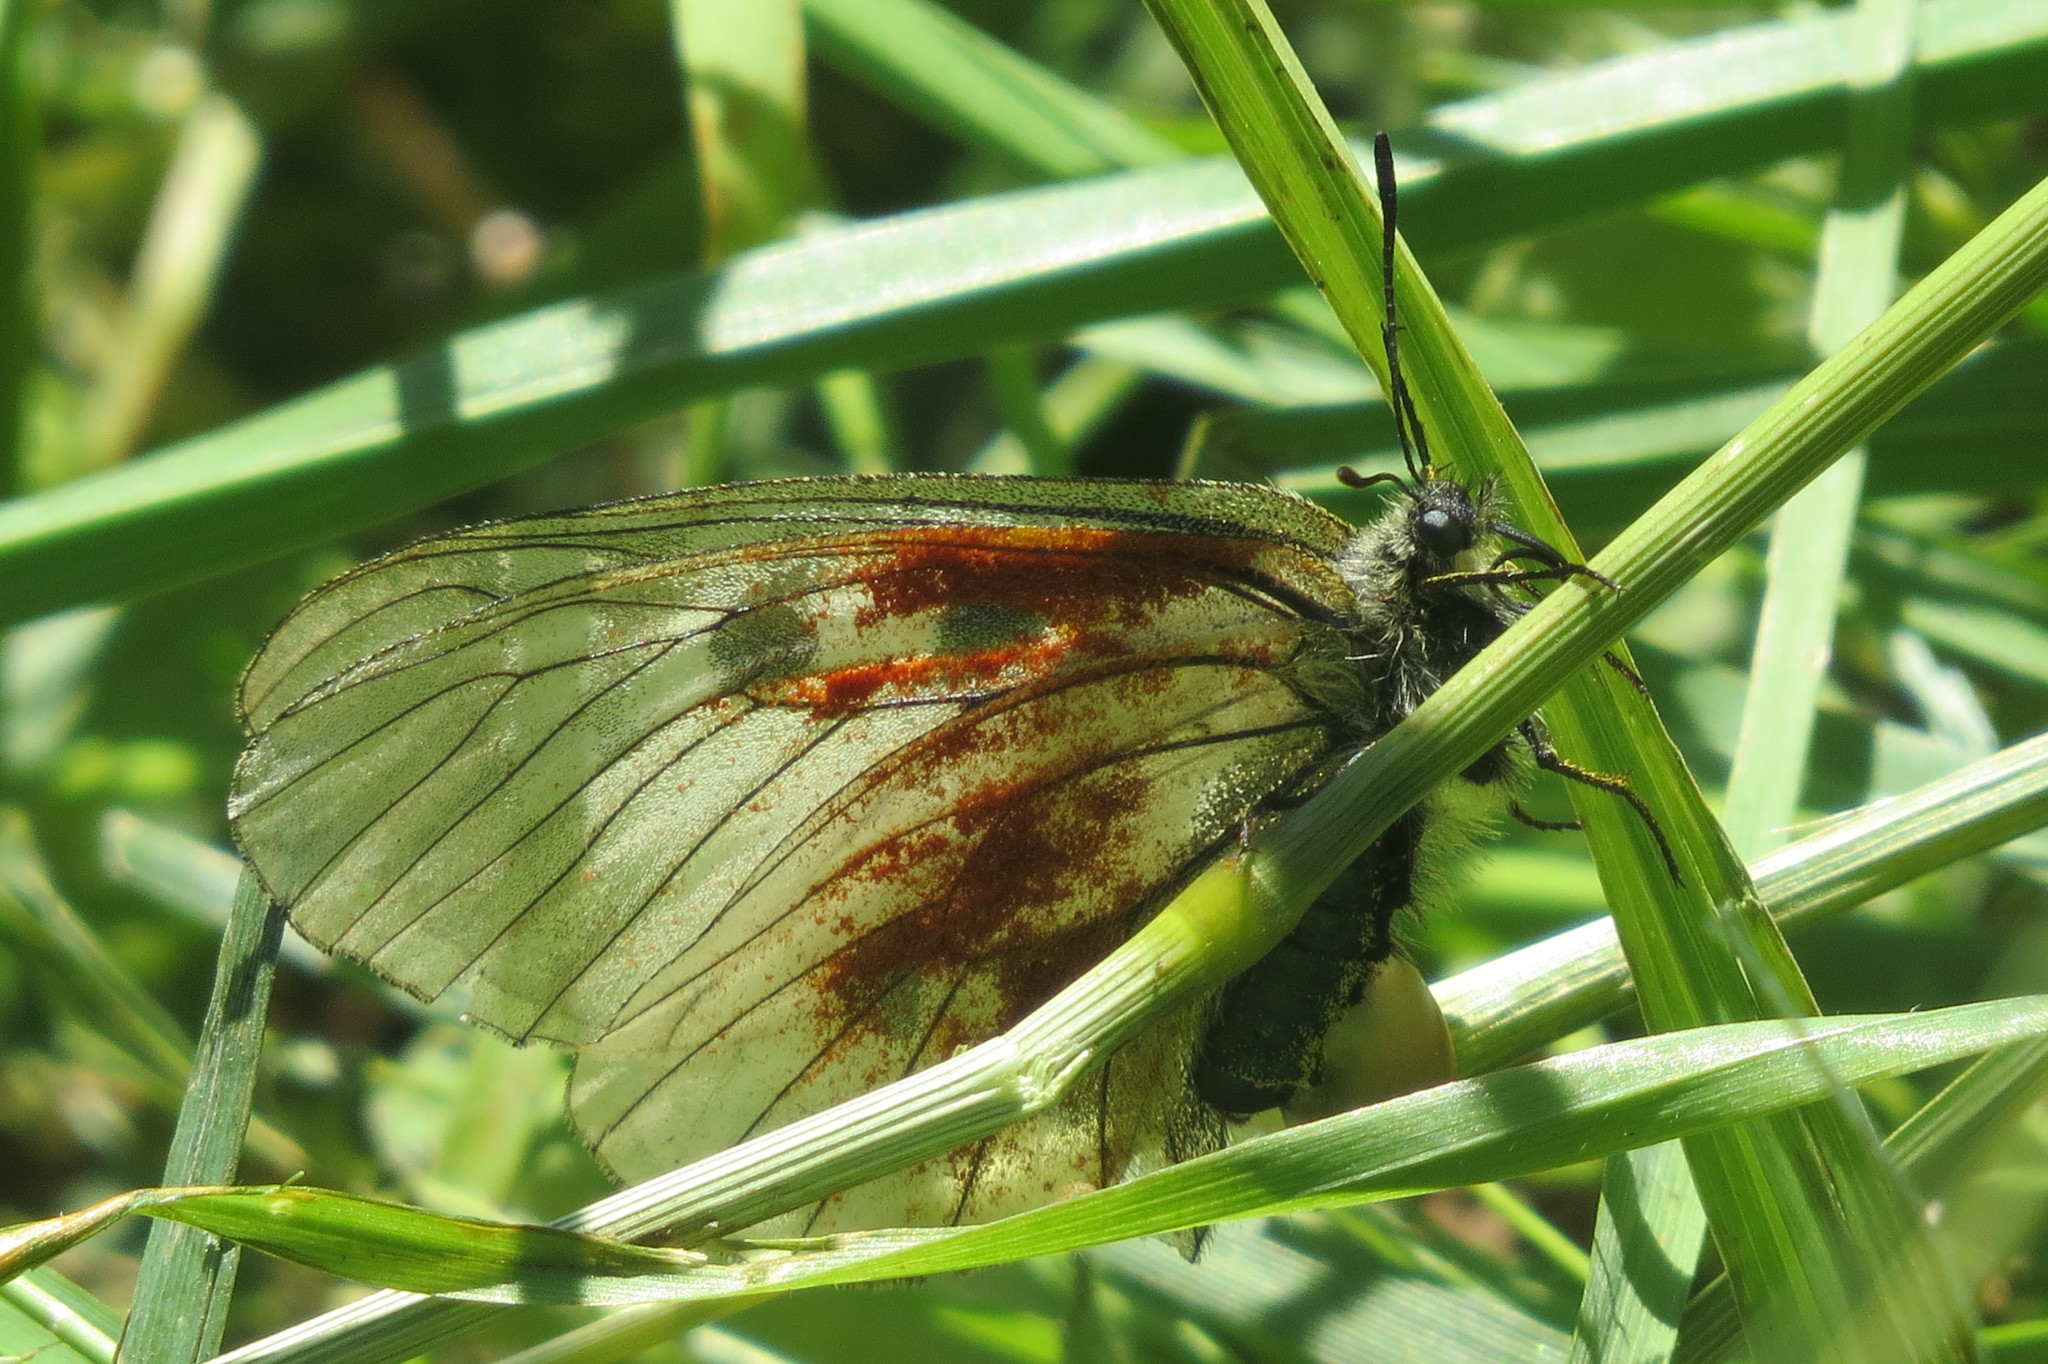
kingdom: Animalia
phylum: Arthropoda
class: Insecta
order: Lepidoptera
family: Papilionidae
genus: Parnassius
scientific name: Parnassius mnemosyne
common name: Clouded apollo
